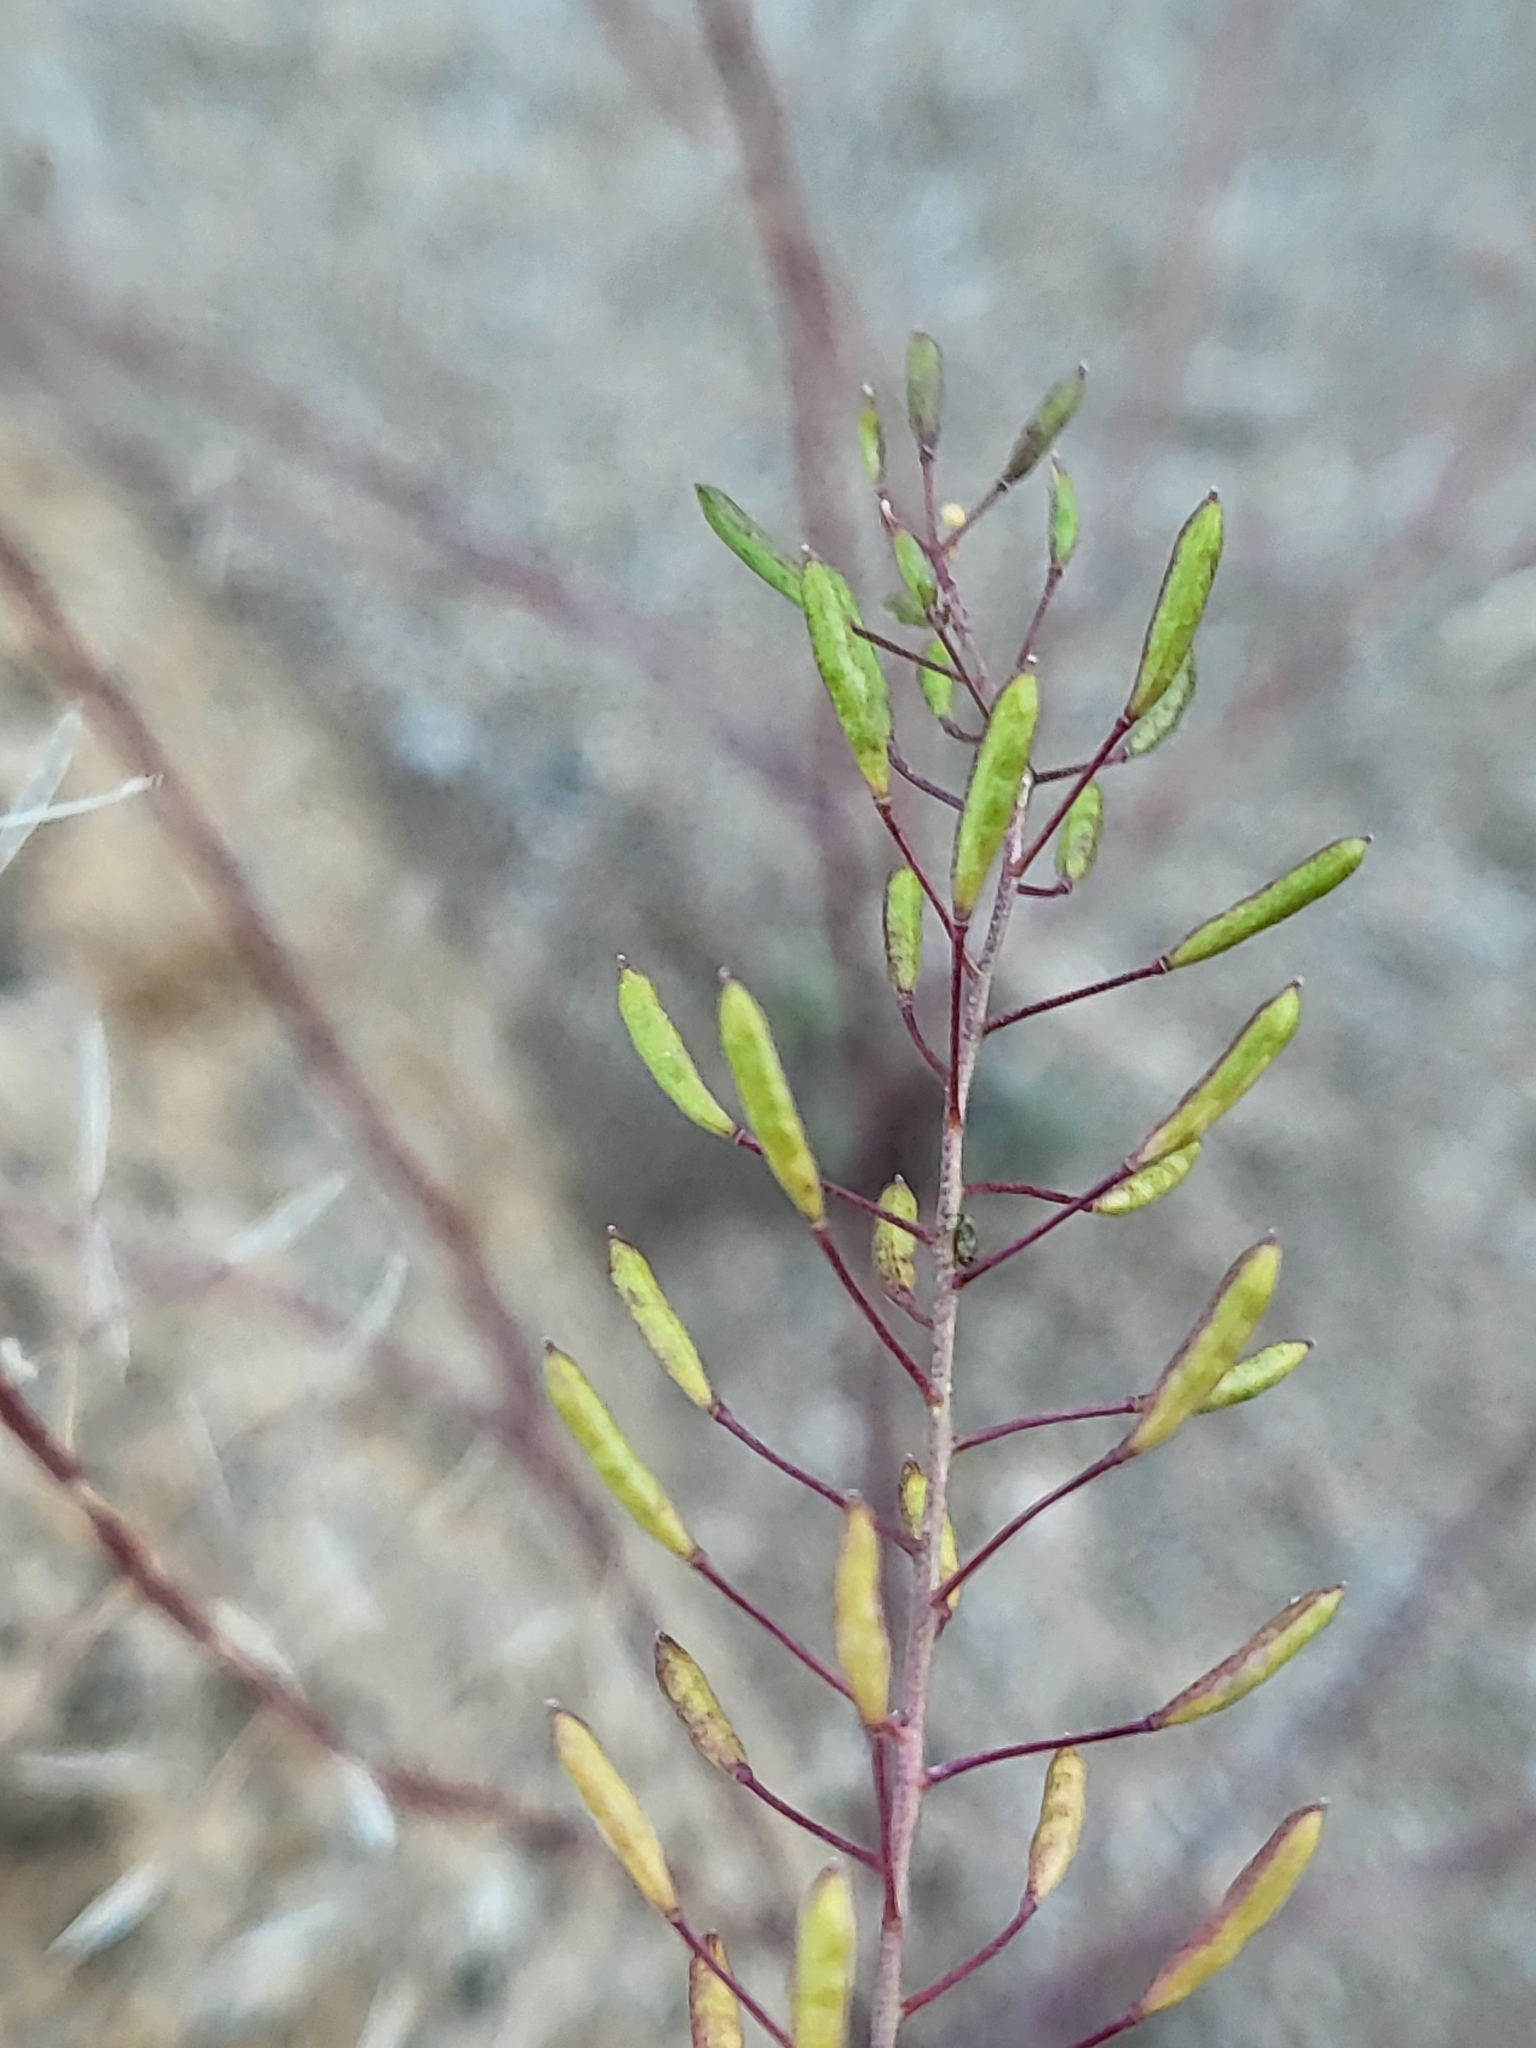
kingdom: Plantae
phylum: Tracheophyta
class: Magnoliopsida
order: Brassicales
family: Brassicaceae
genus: Descurainia
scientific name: Descurainia pinnata
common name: Western tansy mustard
